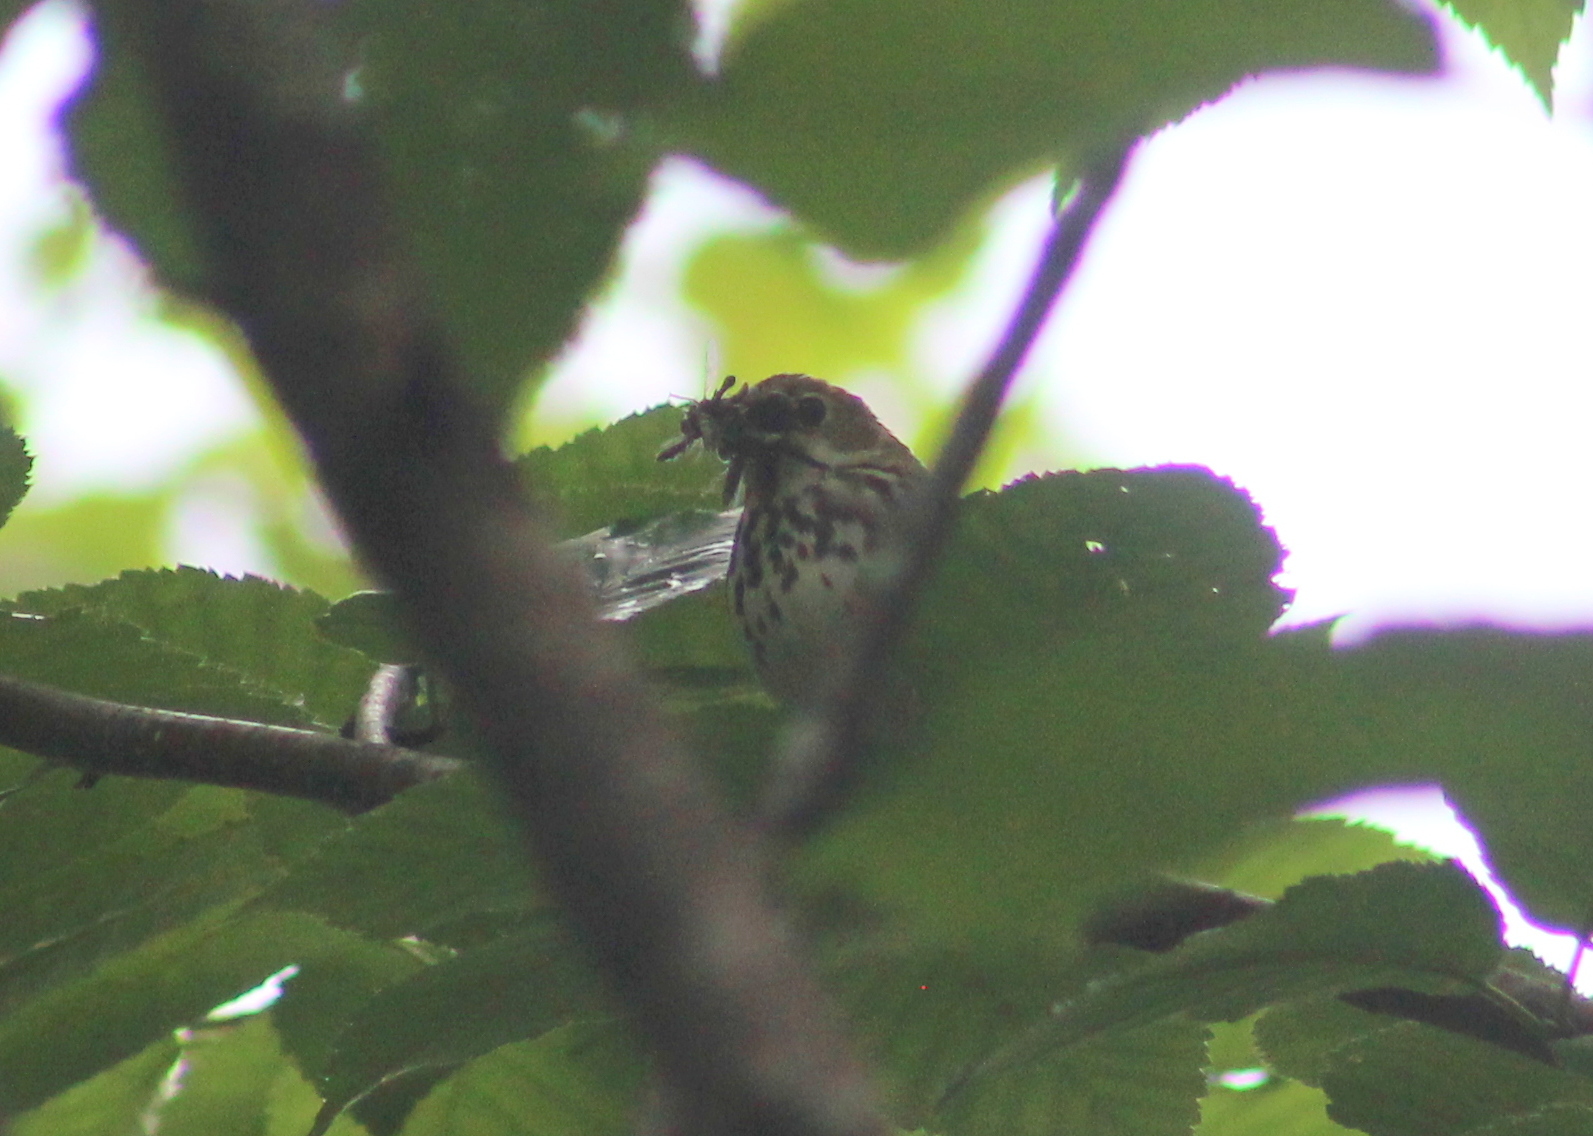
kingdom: Animalia
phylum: Chordata
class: Aves
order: Passeriformes
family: Parulidae
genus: Seiurus
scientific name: Seiurus aurocapilla
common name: Ovenbird
